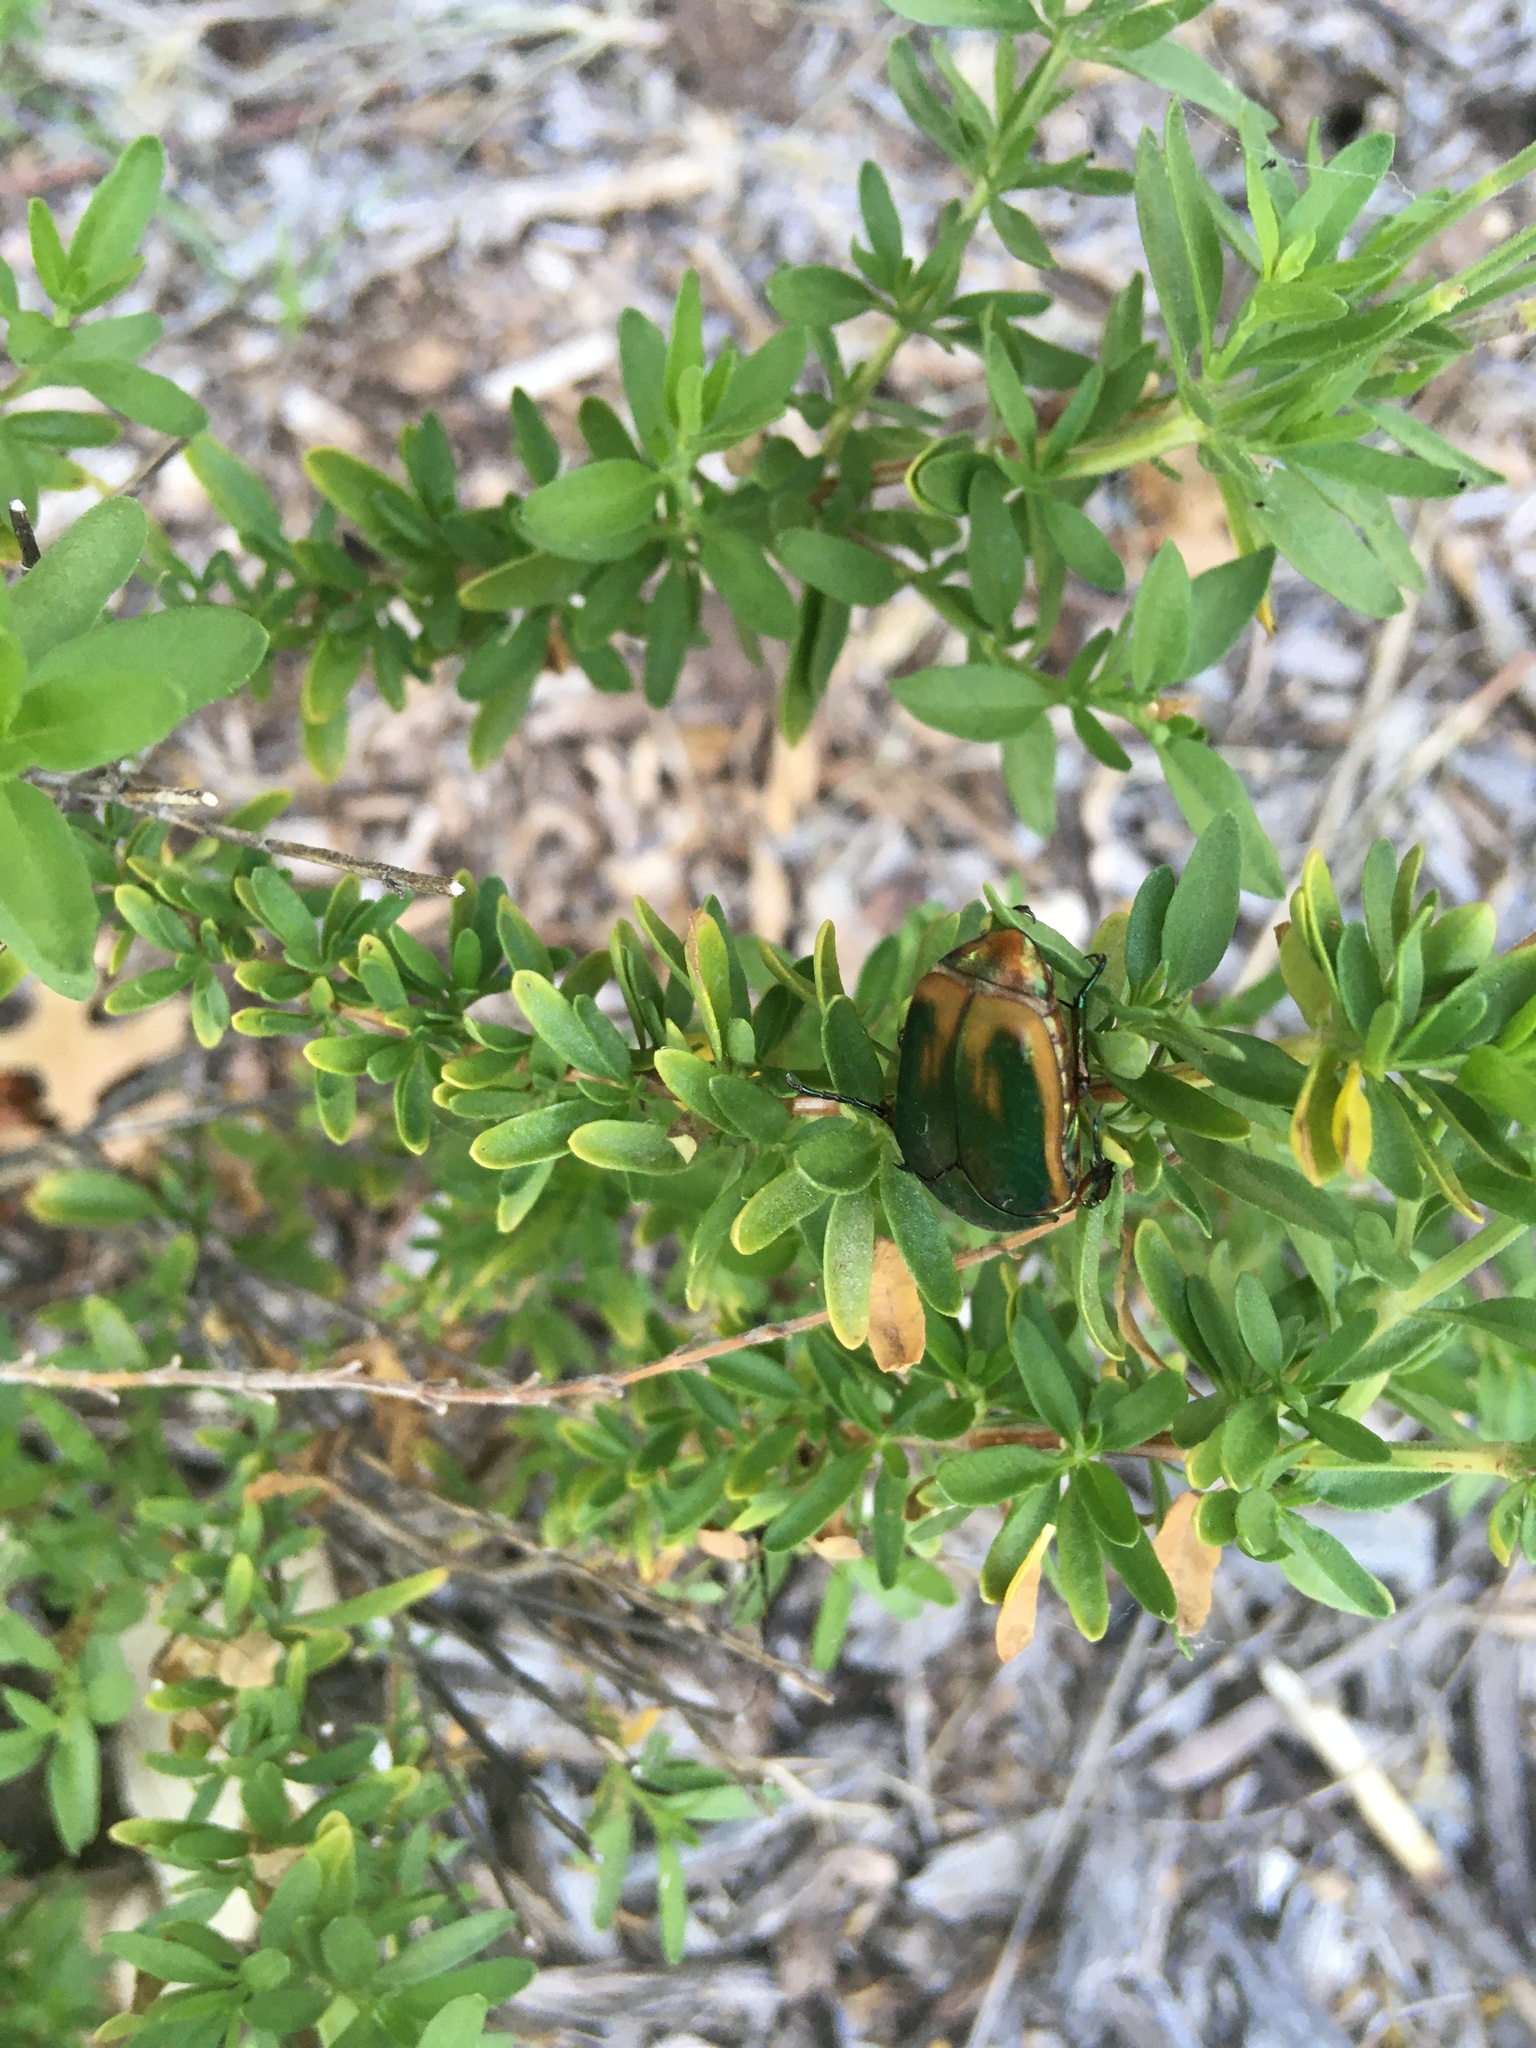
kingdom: Animalia
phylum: Arthropoda
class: Insecta
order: Coleoptera
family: Scarabaeidae
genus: Cotinis
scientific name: Cotinis nitida
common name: Common green june beetle
